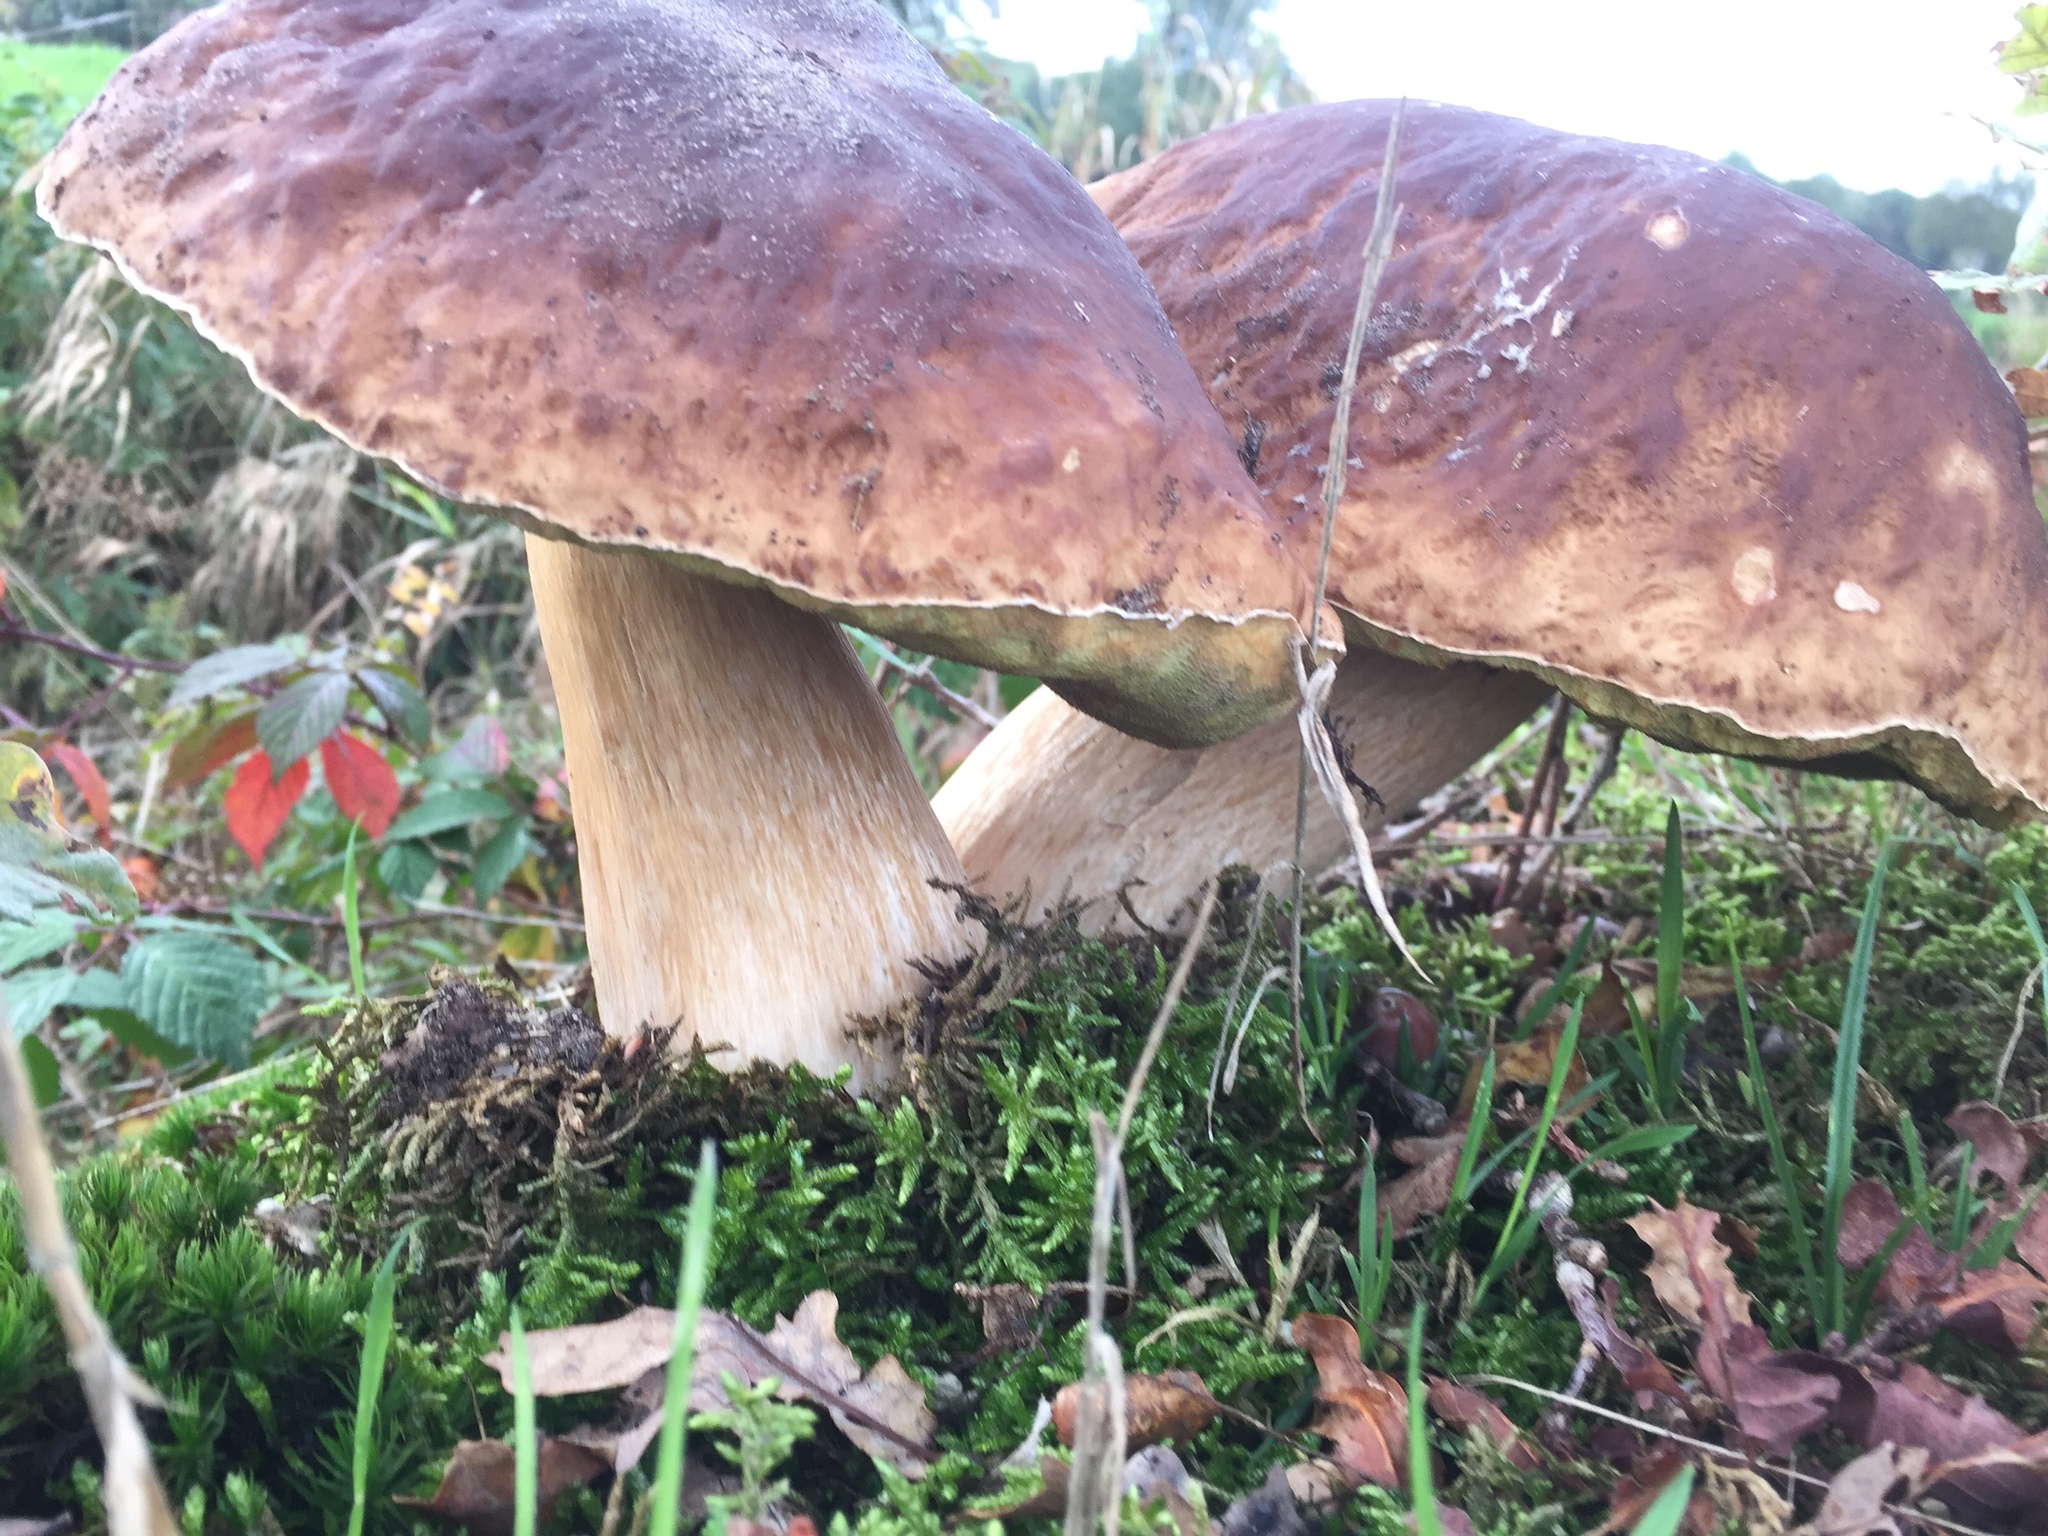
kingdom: Fungi
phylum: Basidiomycota
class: Agaricomycetes
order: Boletales
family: Boletaceae
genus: Boletus
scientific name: Boletus edulis
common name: Cep
